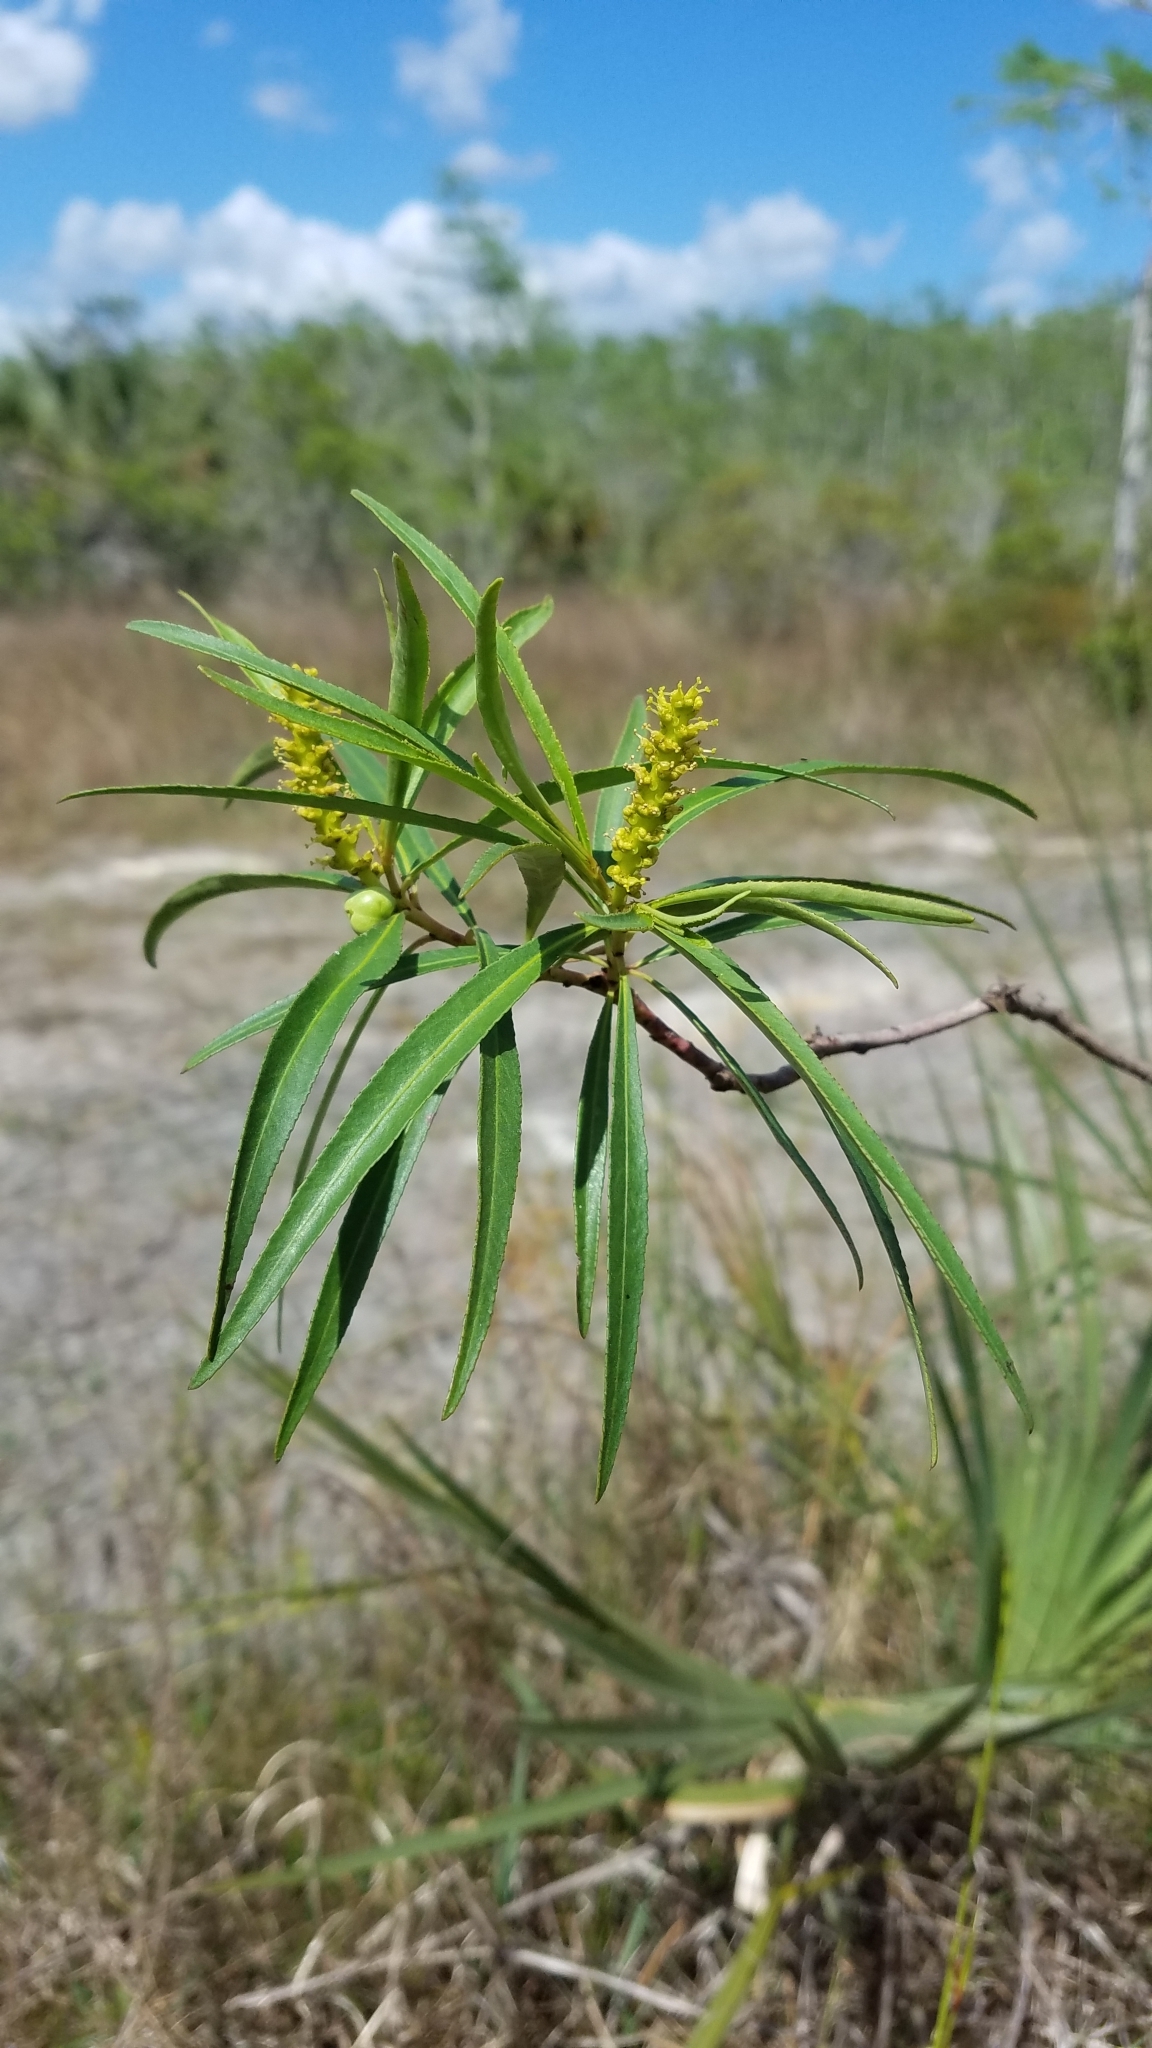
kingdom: Plantae
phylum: Tracheophyta
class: Magnoliopsida
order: Malpighiales
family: Euphorbiaceae
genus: Stillingia
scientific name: Stillingia aquatica
